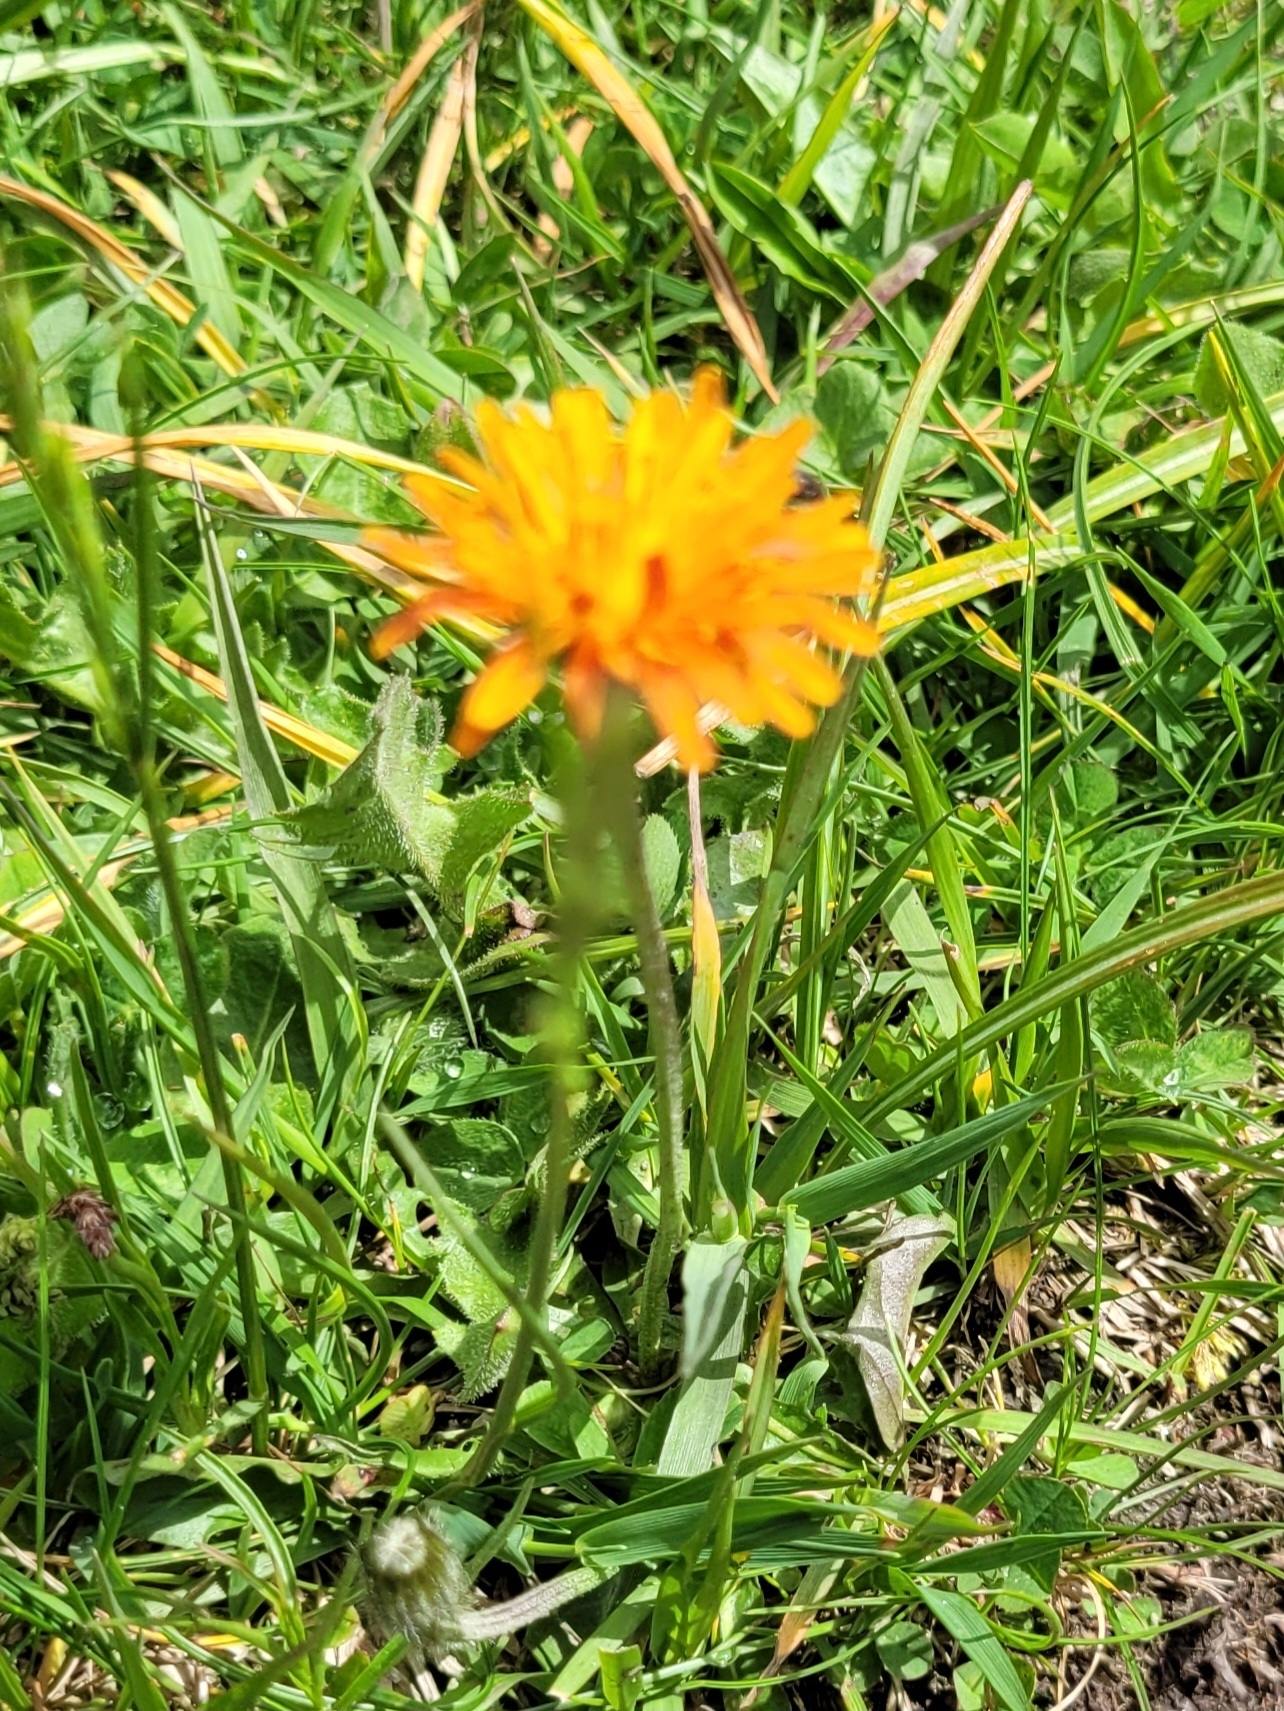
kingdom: Plantae
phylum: Tracheophyta
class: Magnoliopsida
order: Asterales
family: Asteraceae
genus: Crepis
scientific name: Crepis aurea
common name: Golden hawk's-beard
